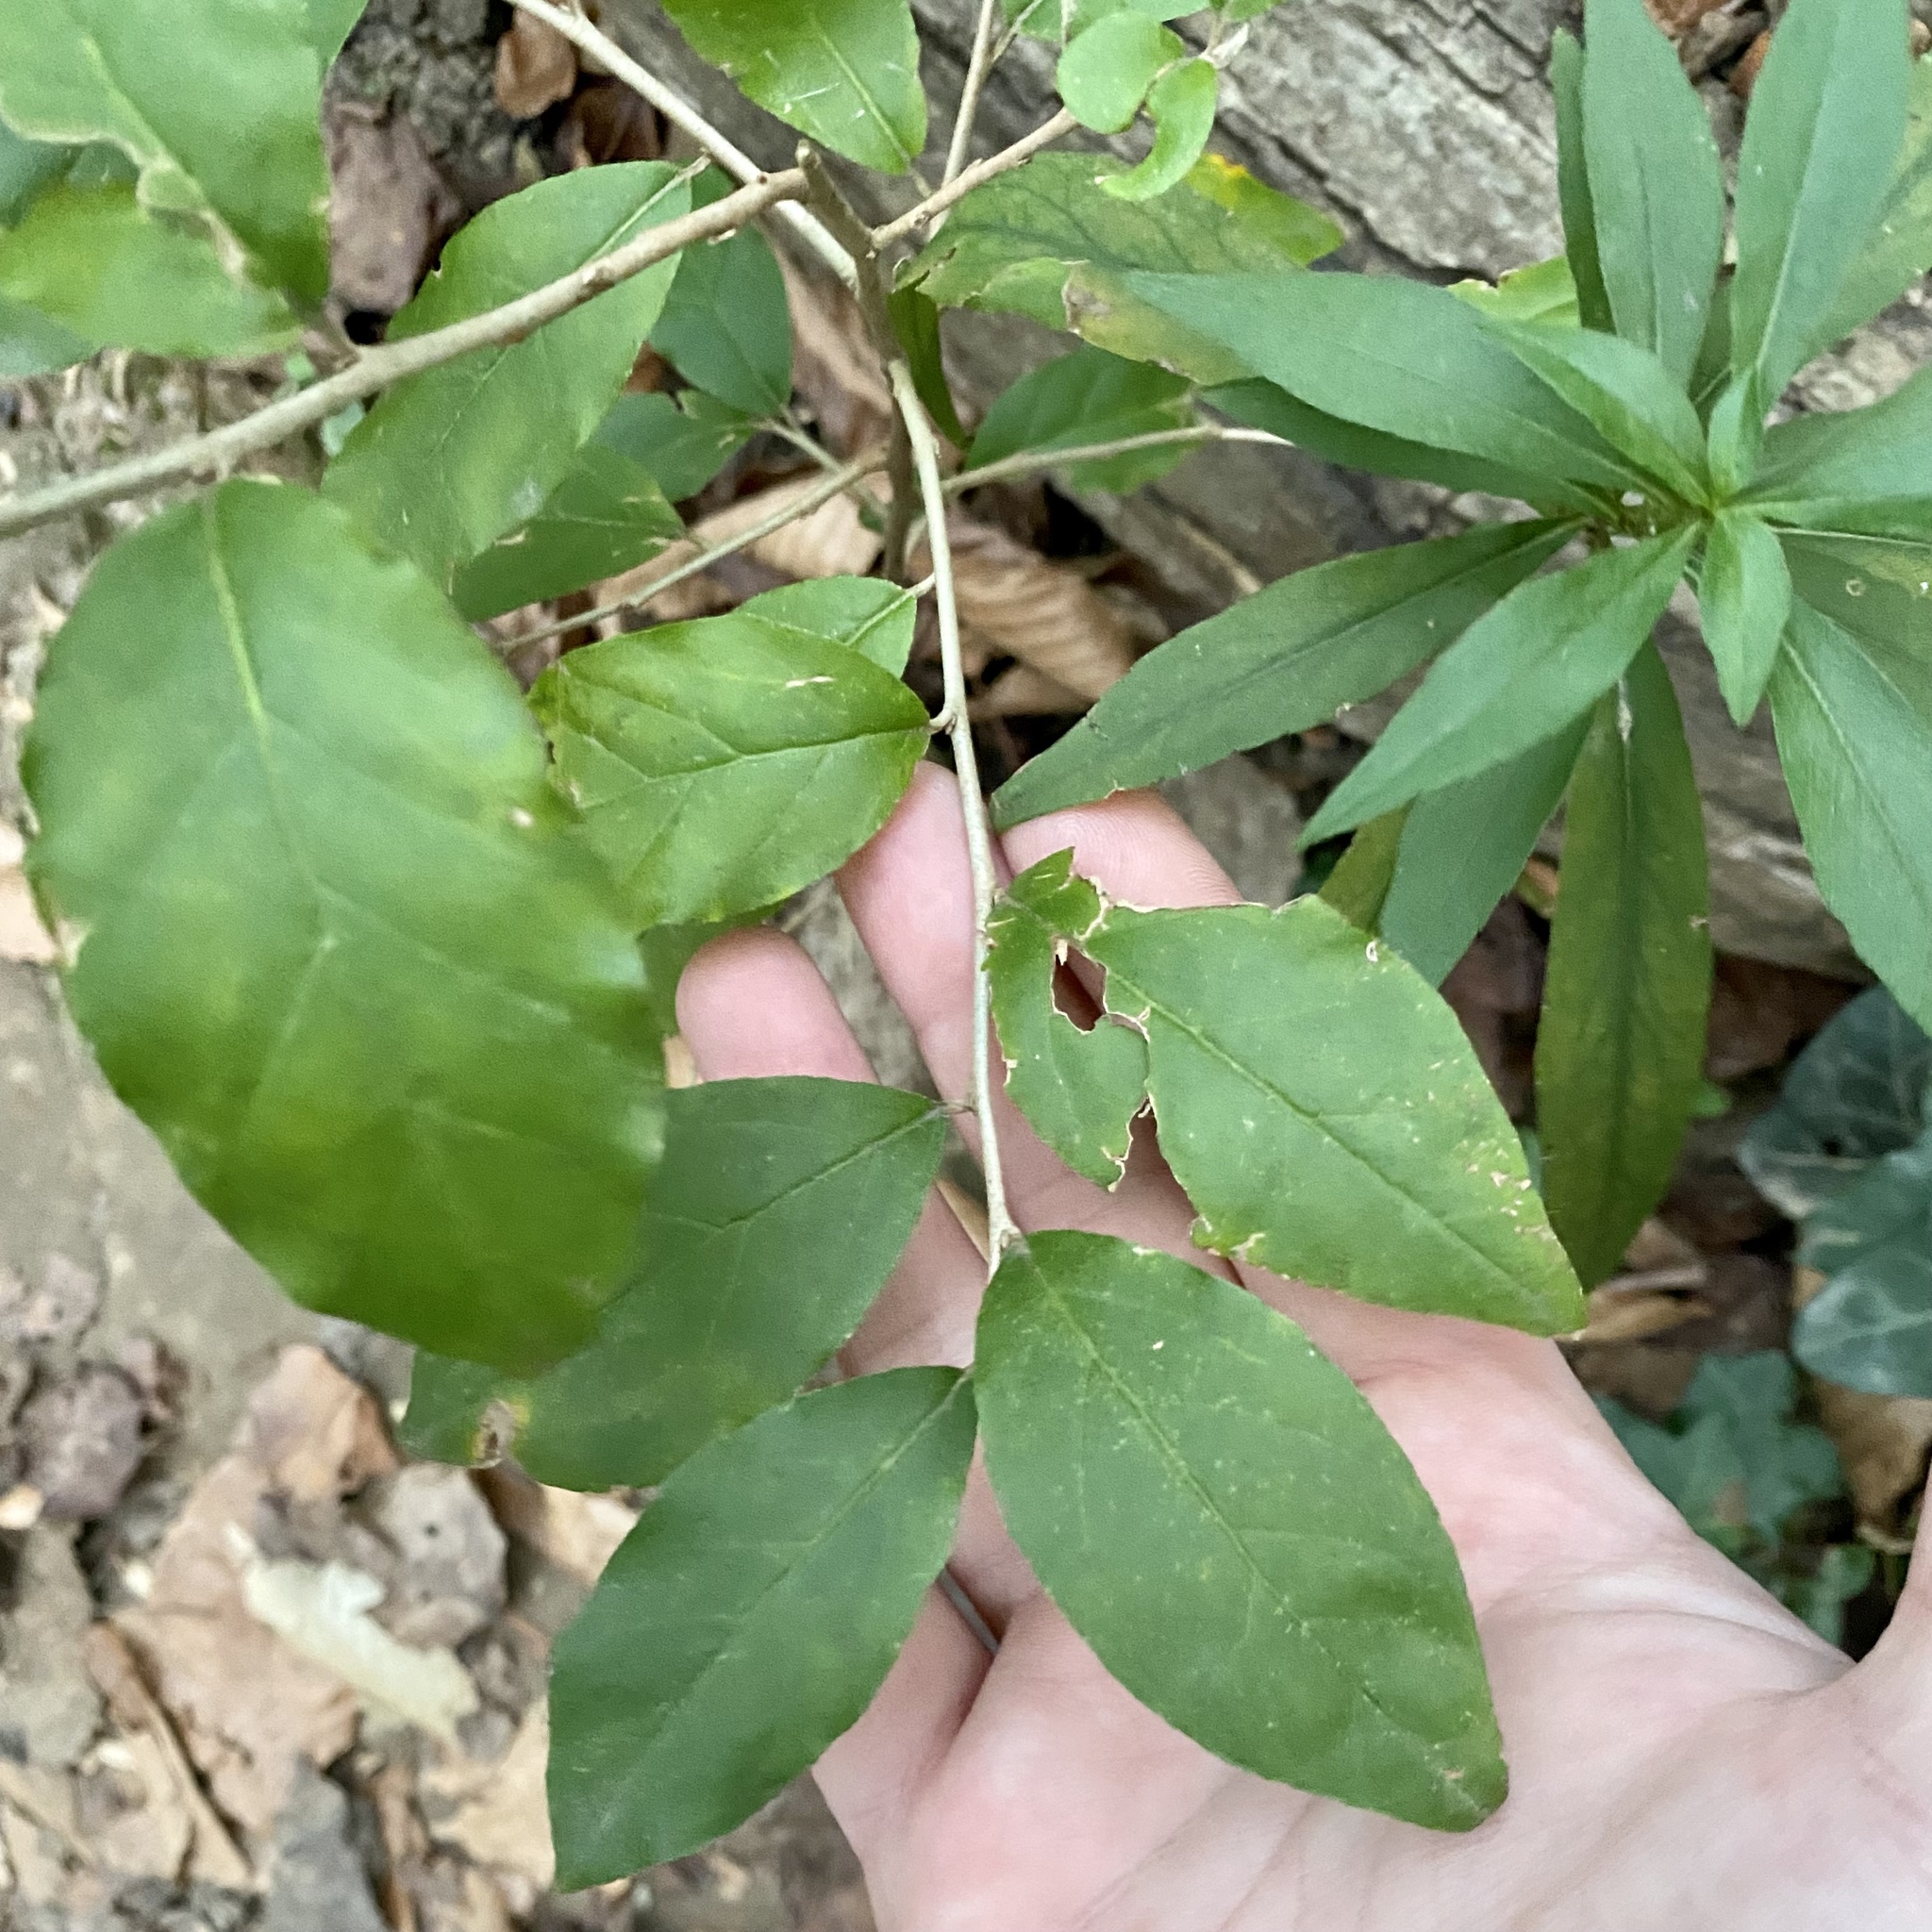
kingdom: Plantae
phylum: Tracheophyta
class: Magnoliopsida
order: Rosales
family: Elaeagnaceae
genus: Elaeagnus
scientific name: Elaeagnus umbellata
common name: Autumn olive
